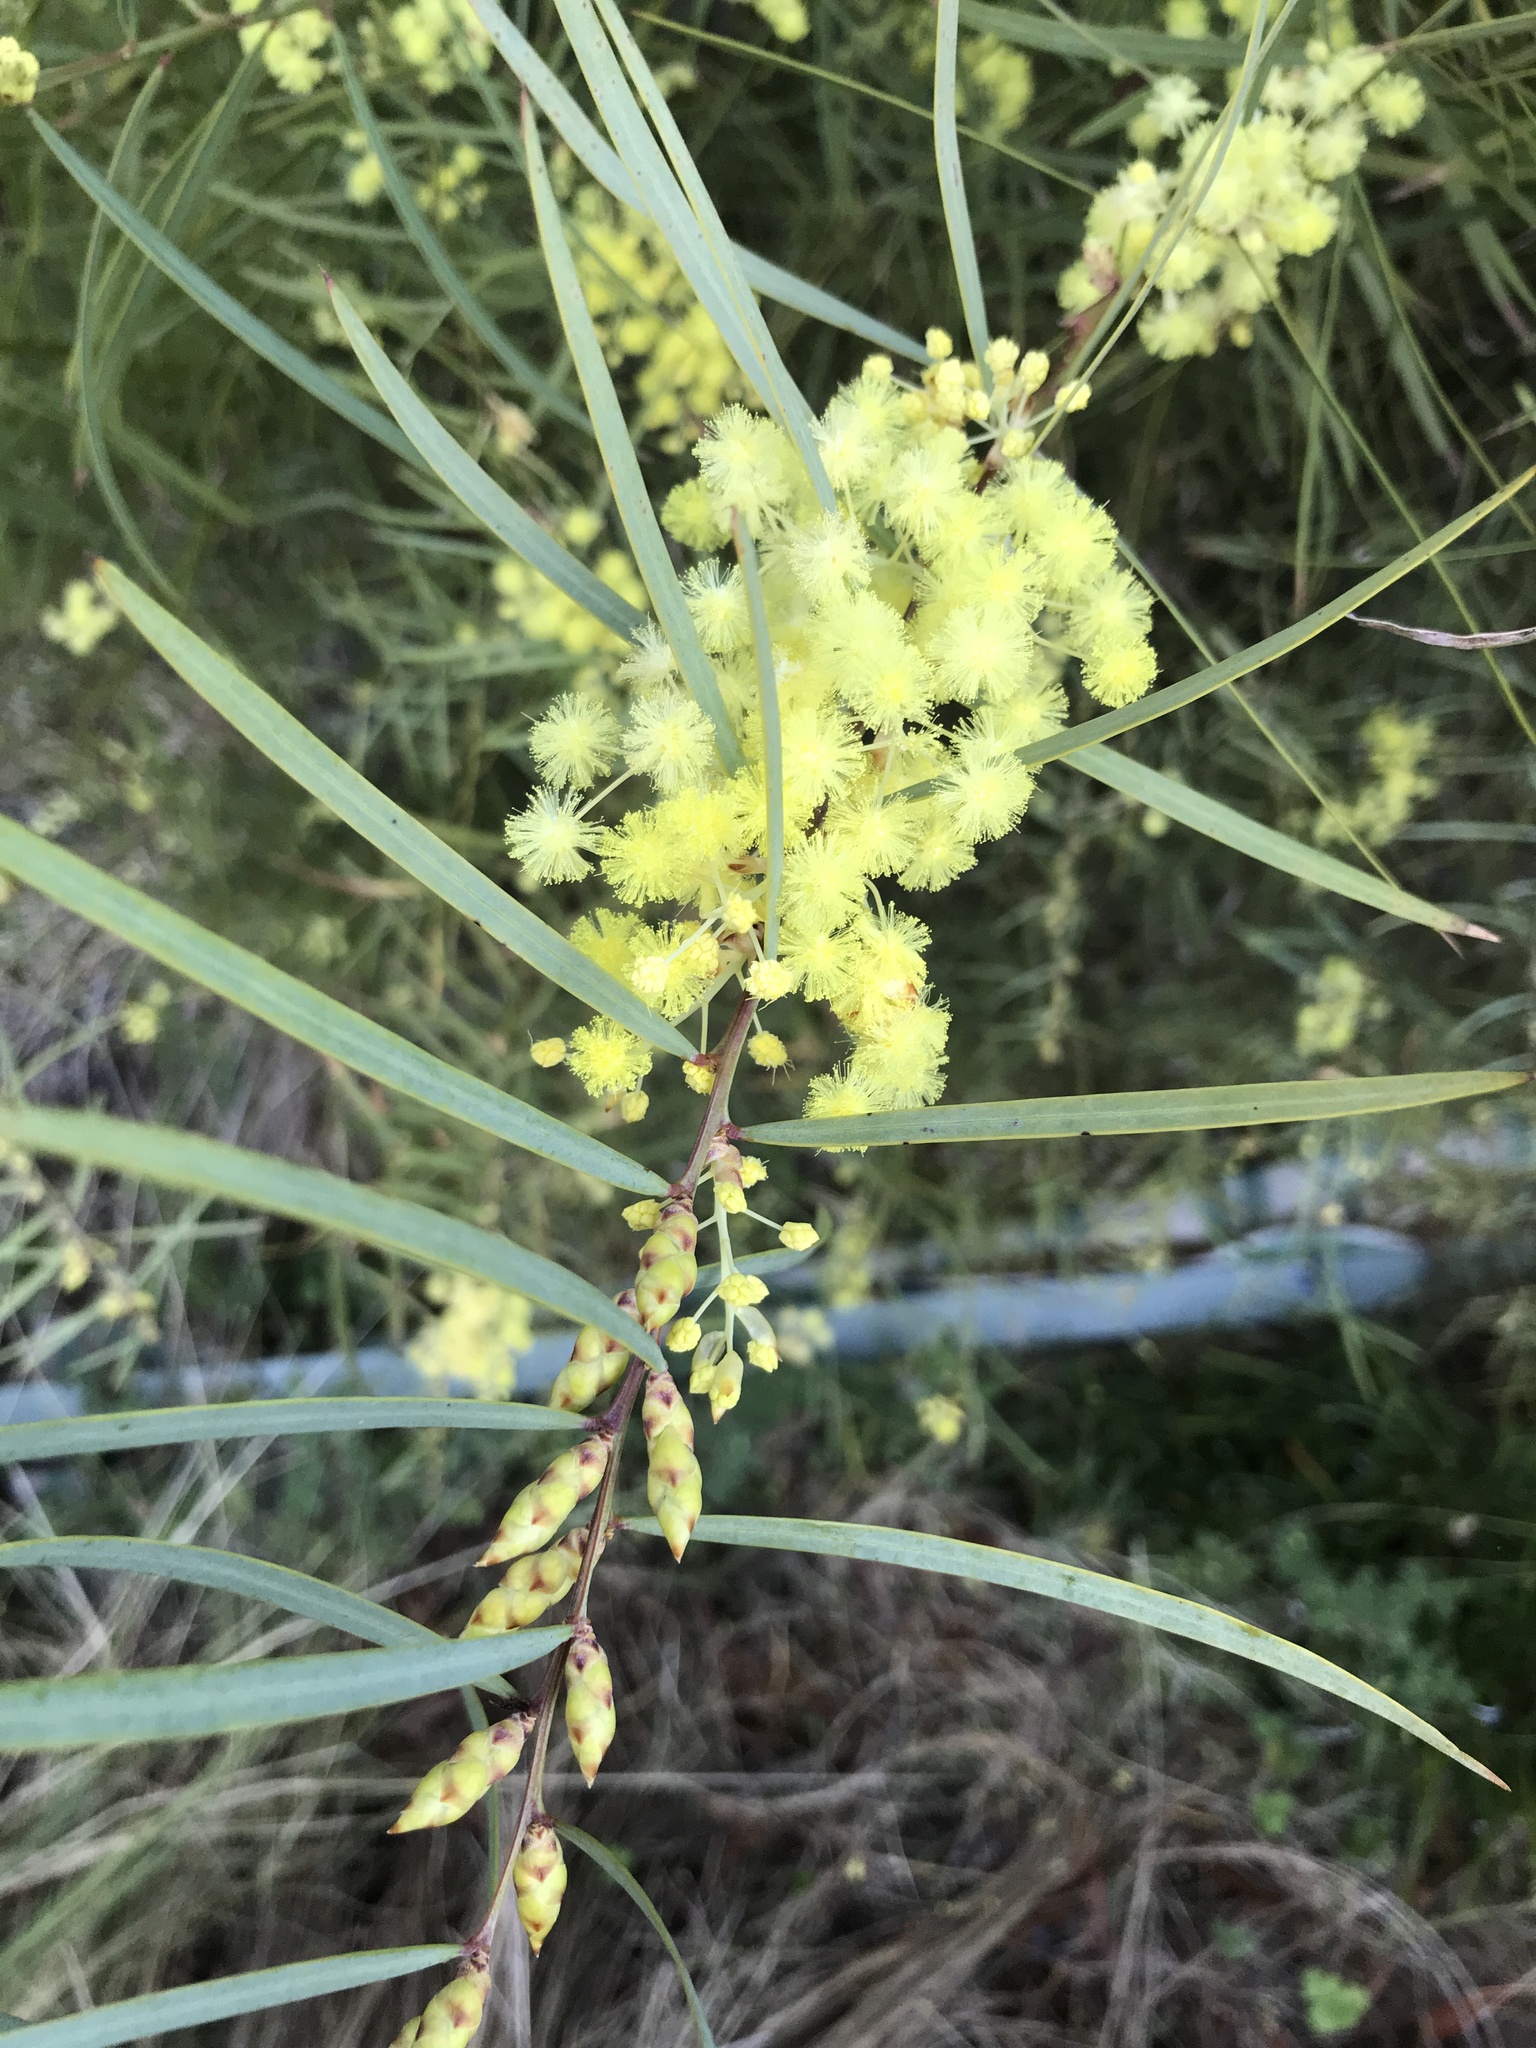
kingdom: Plantae
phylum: Tracheophyta
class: Magnoliopsida
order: Fabales
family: Fabaceae
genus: Acacia
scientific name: Acacia iteaphylla
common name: Flinders ranges wattle
